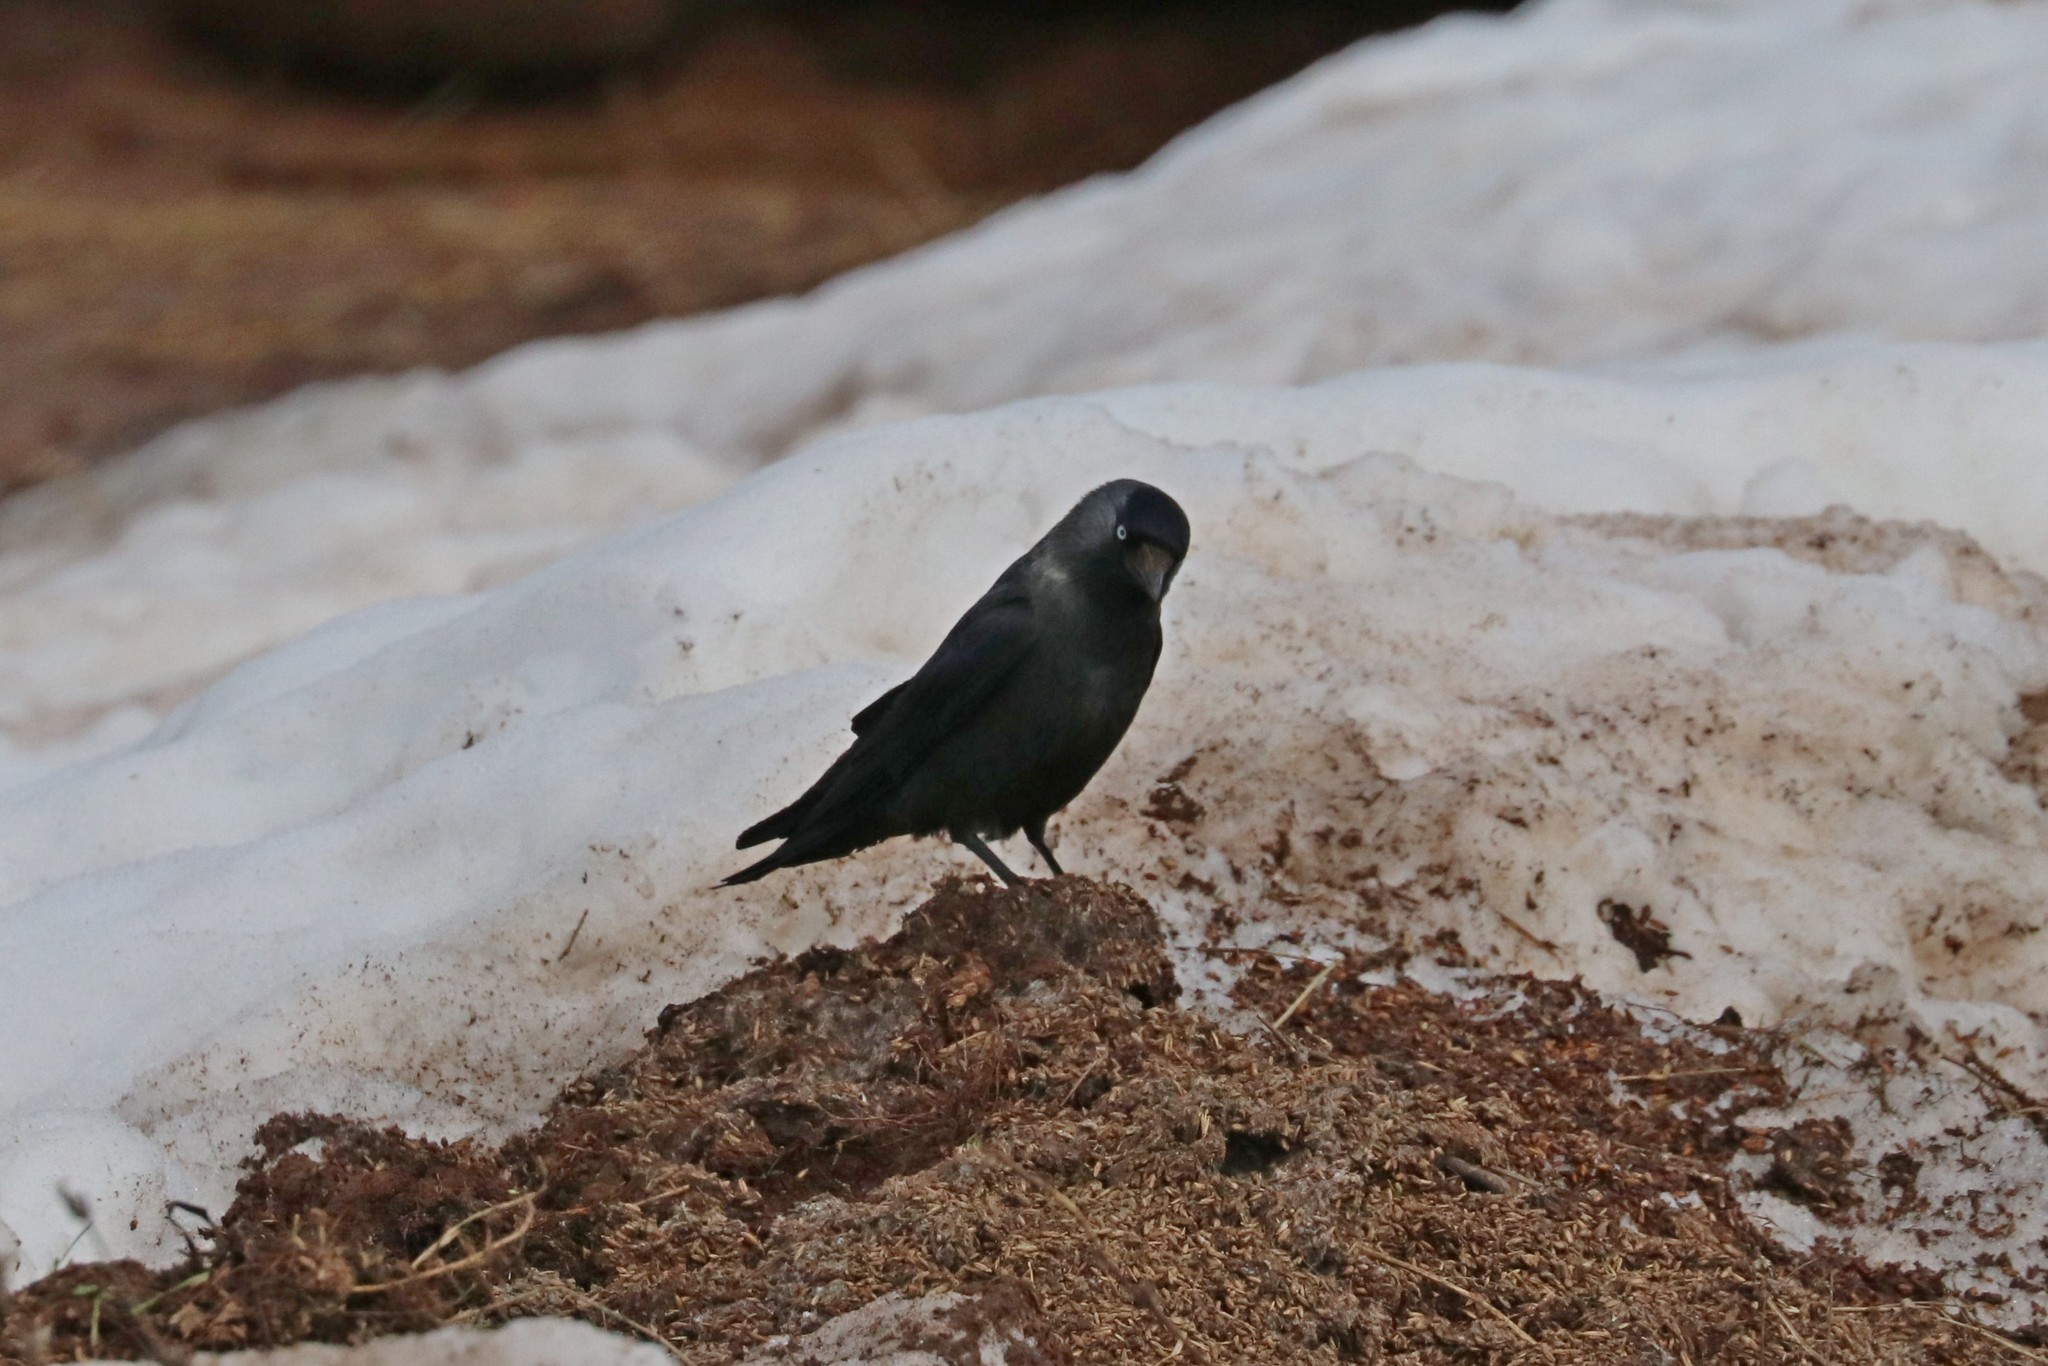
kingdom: Animalia
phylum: Chordata
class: Aves
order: Passeriformes
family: Corvidae
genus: Coloeus
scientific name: Coloeus monedula
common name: Western jackdaw
